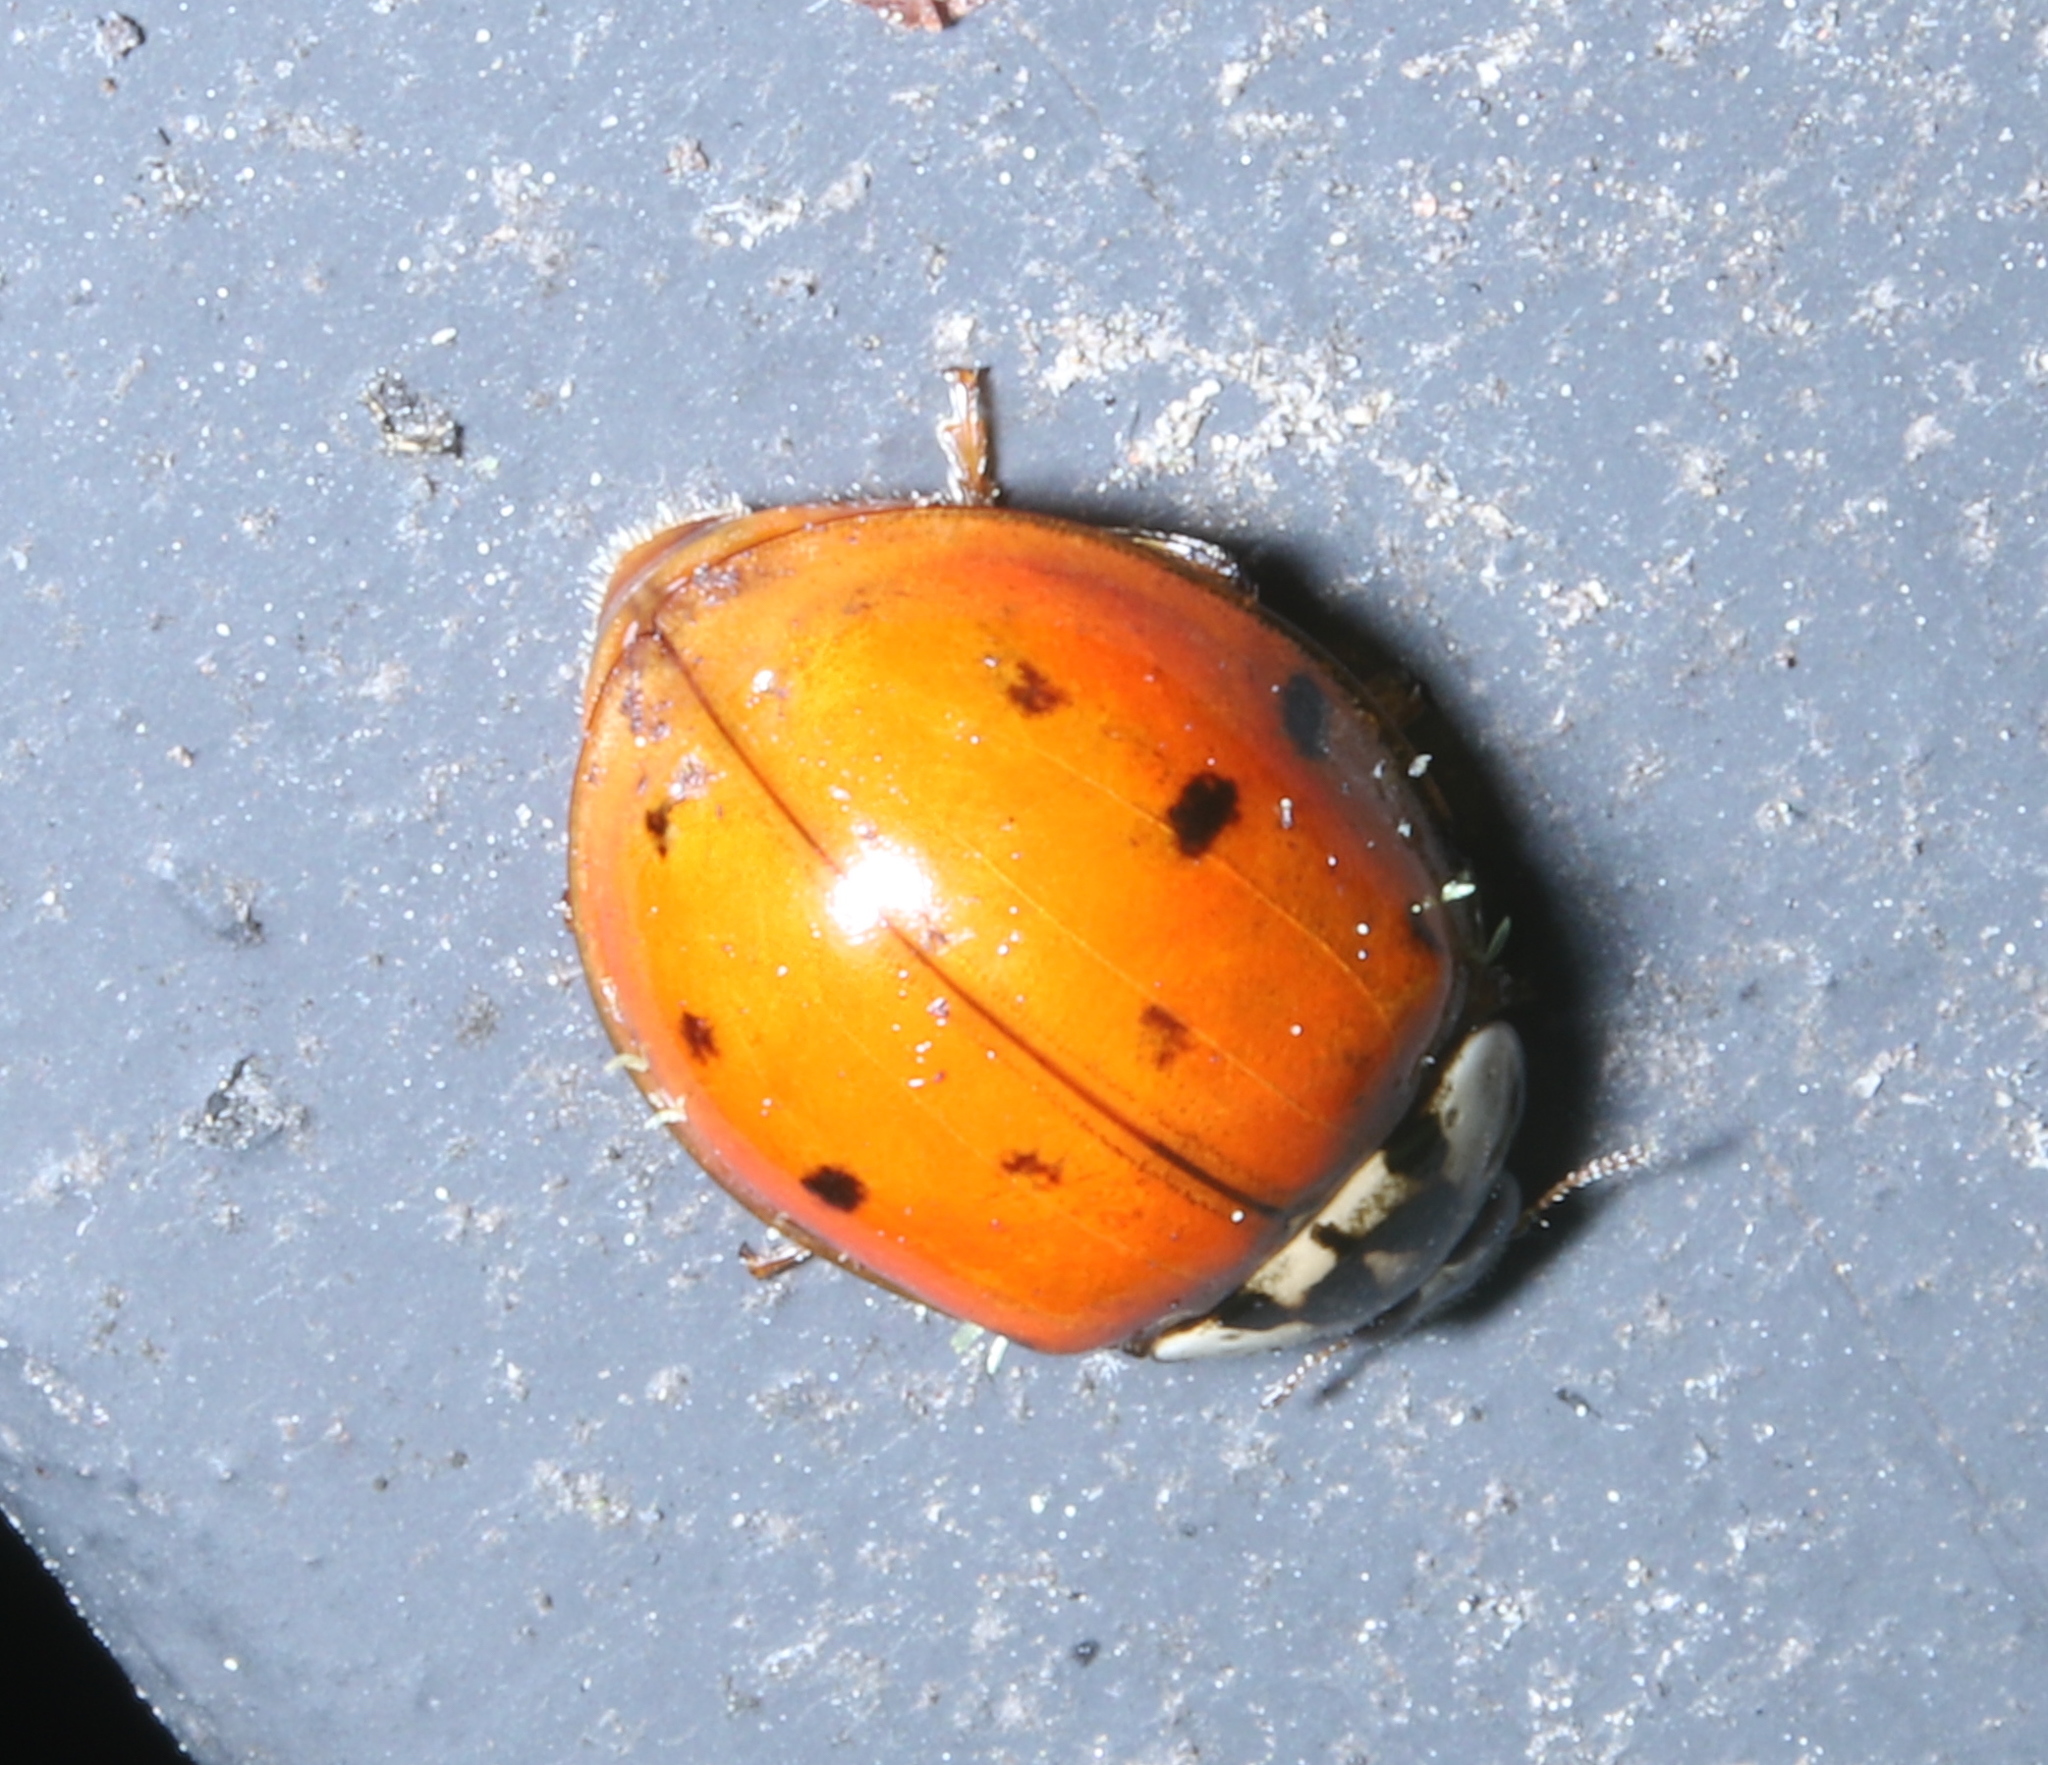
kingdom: Fungi
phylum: Ascomycota
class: Laboulbeniomycetes
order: Laboulbeniales
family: Laboulbeniaceae
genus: Hesperomyces
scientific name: Hesperomyces harmoniae
